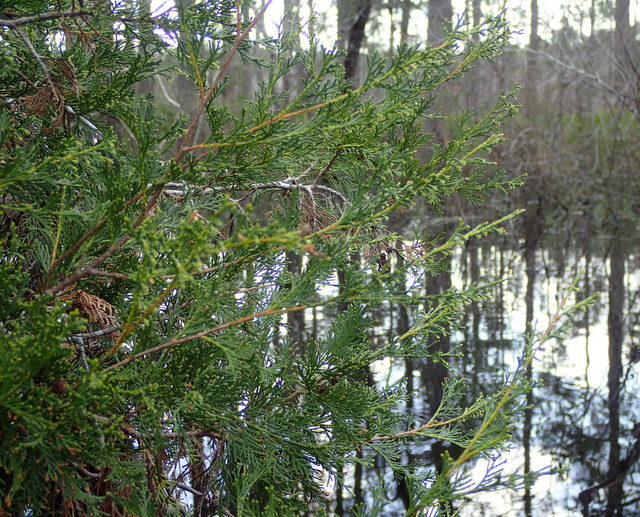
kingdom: Plantae
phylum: Tracheophyta
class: Pinopsida
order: Pinales
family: Cupressaceae
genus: Chamaecyparis
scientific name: Chamaecyparis thyoides
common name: Atlantic white cedar
